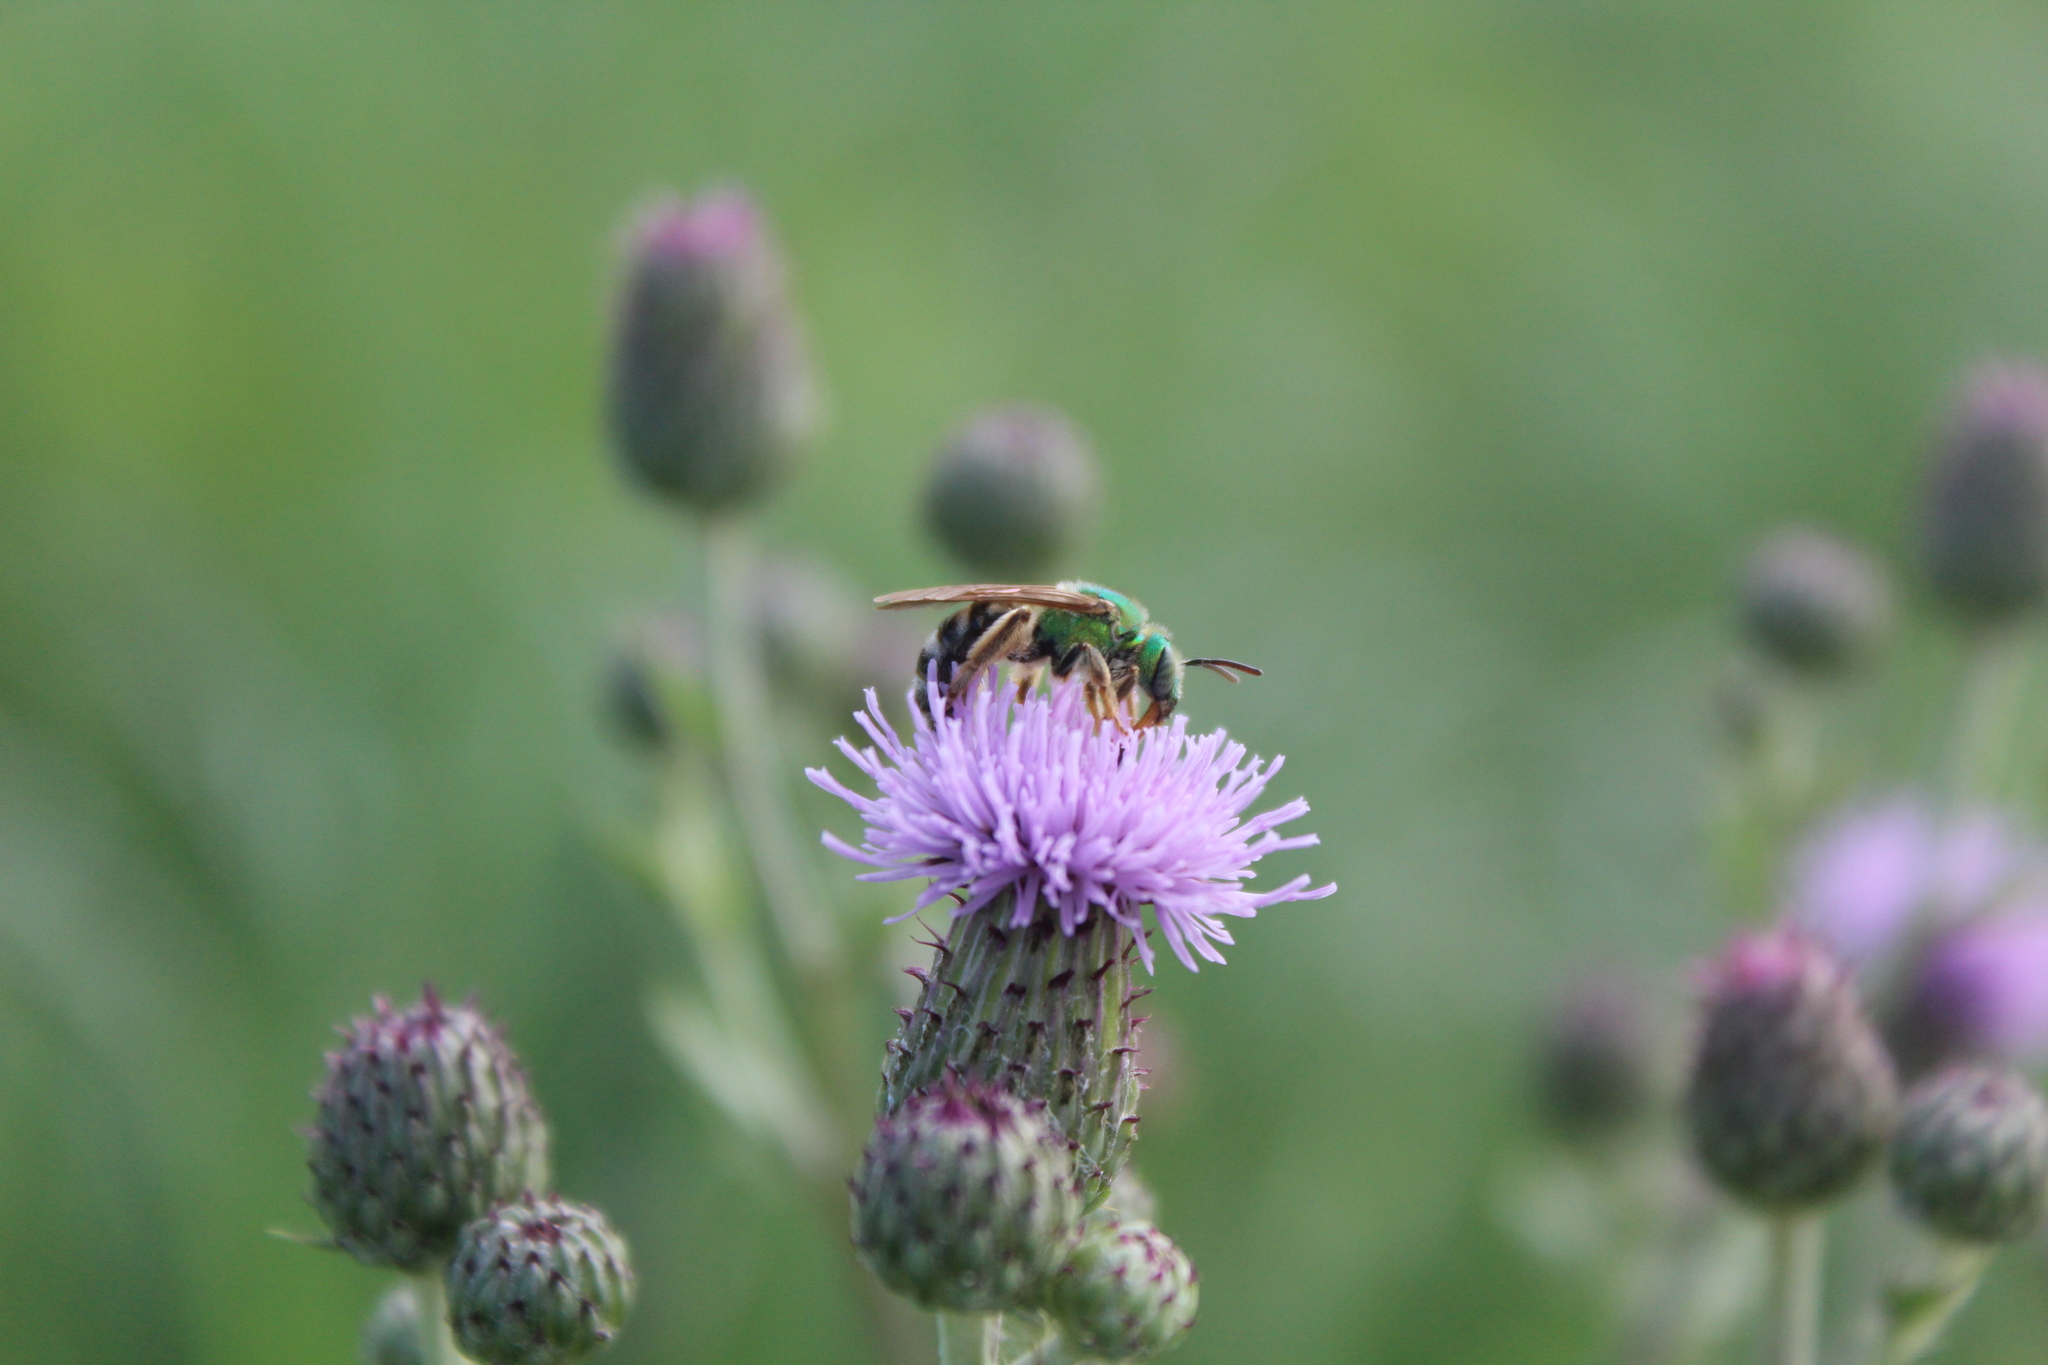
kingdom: Animalia
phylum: Arthropoda
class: Insecta
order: Hymenoptera
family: Halictidae
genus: Agapostemon
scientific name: Agapostemon virescens
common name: Bicolored striped sweat bee
